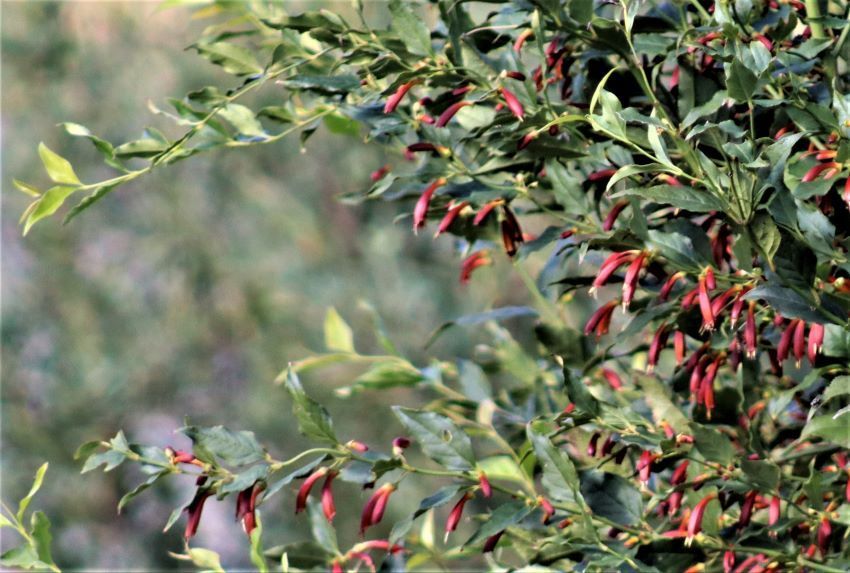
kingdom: Plantae
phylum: Tracheophyta
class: Magnoliopsida
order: Lamiales
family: Stilbaceae
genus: Halleria
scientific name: Halleria lucida
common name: Tree fuschia
